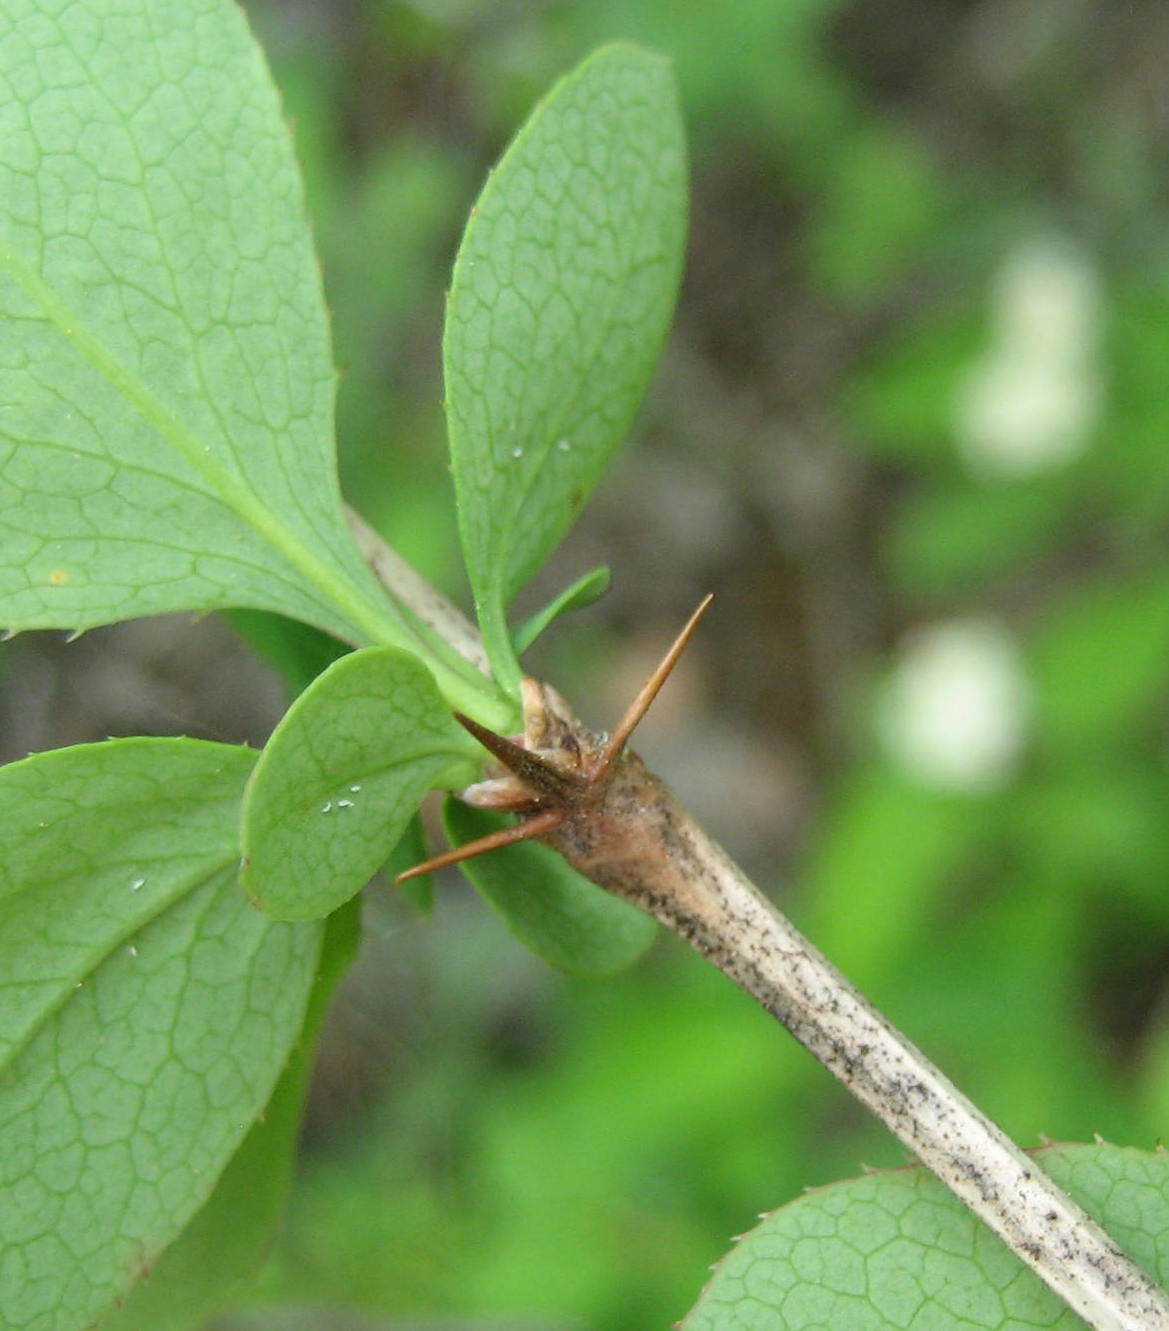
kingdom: Plantae
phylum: Tracheophyta
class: Magnoliopsida
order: Ranunculales
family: Berberidaceae
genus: Berberis
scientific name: Berberis vulgaris
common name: Barberry
